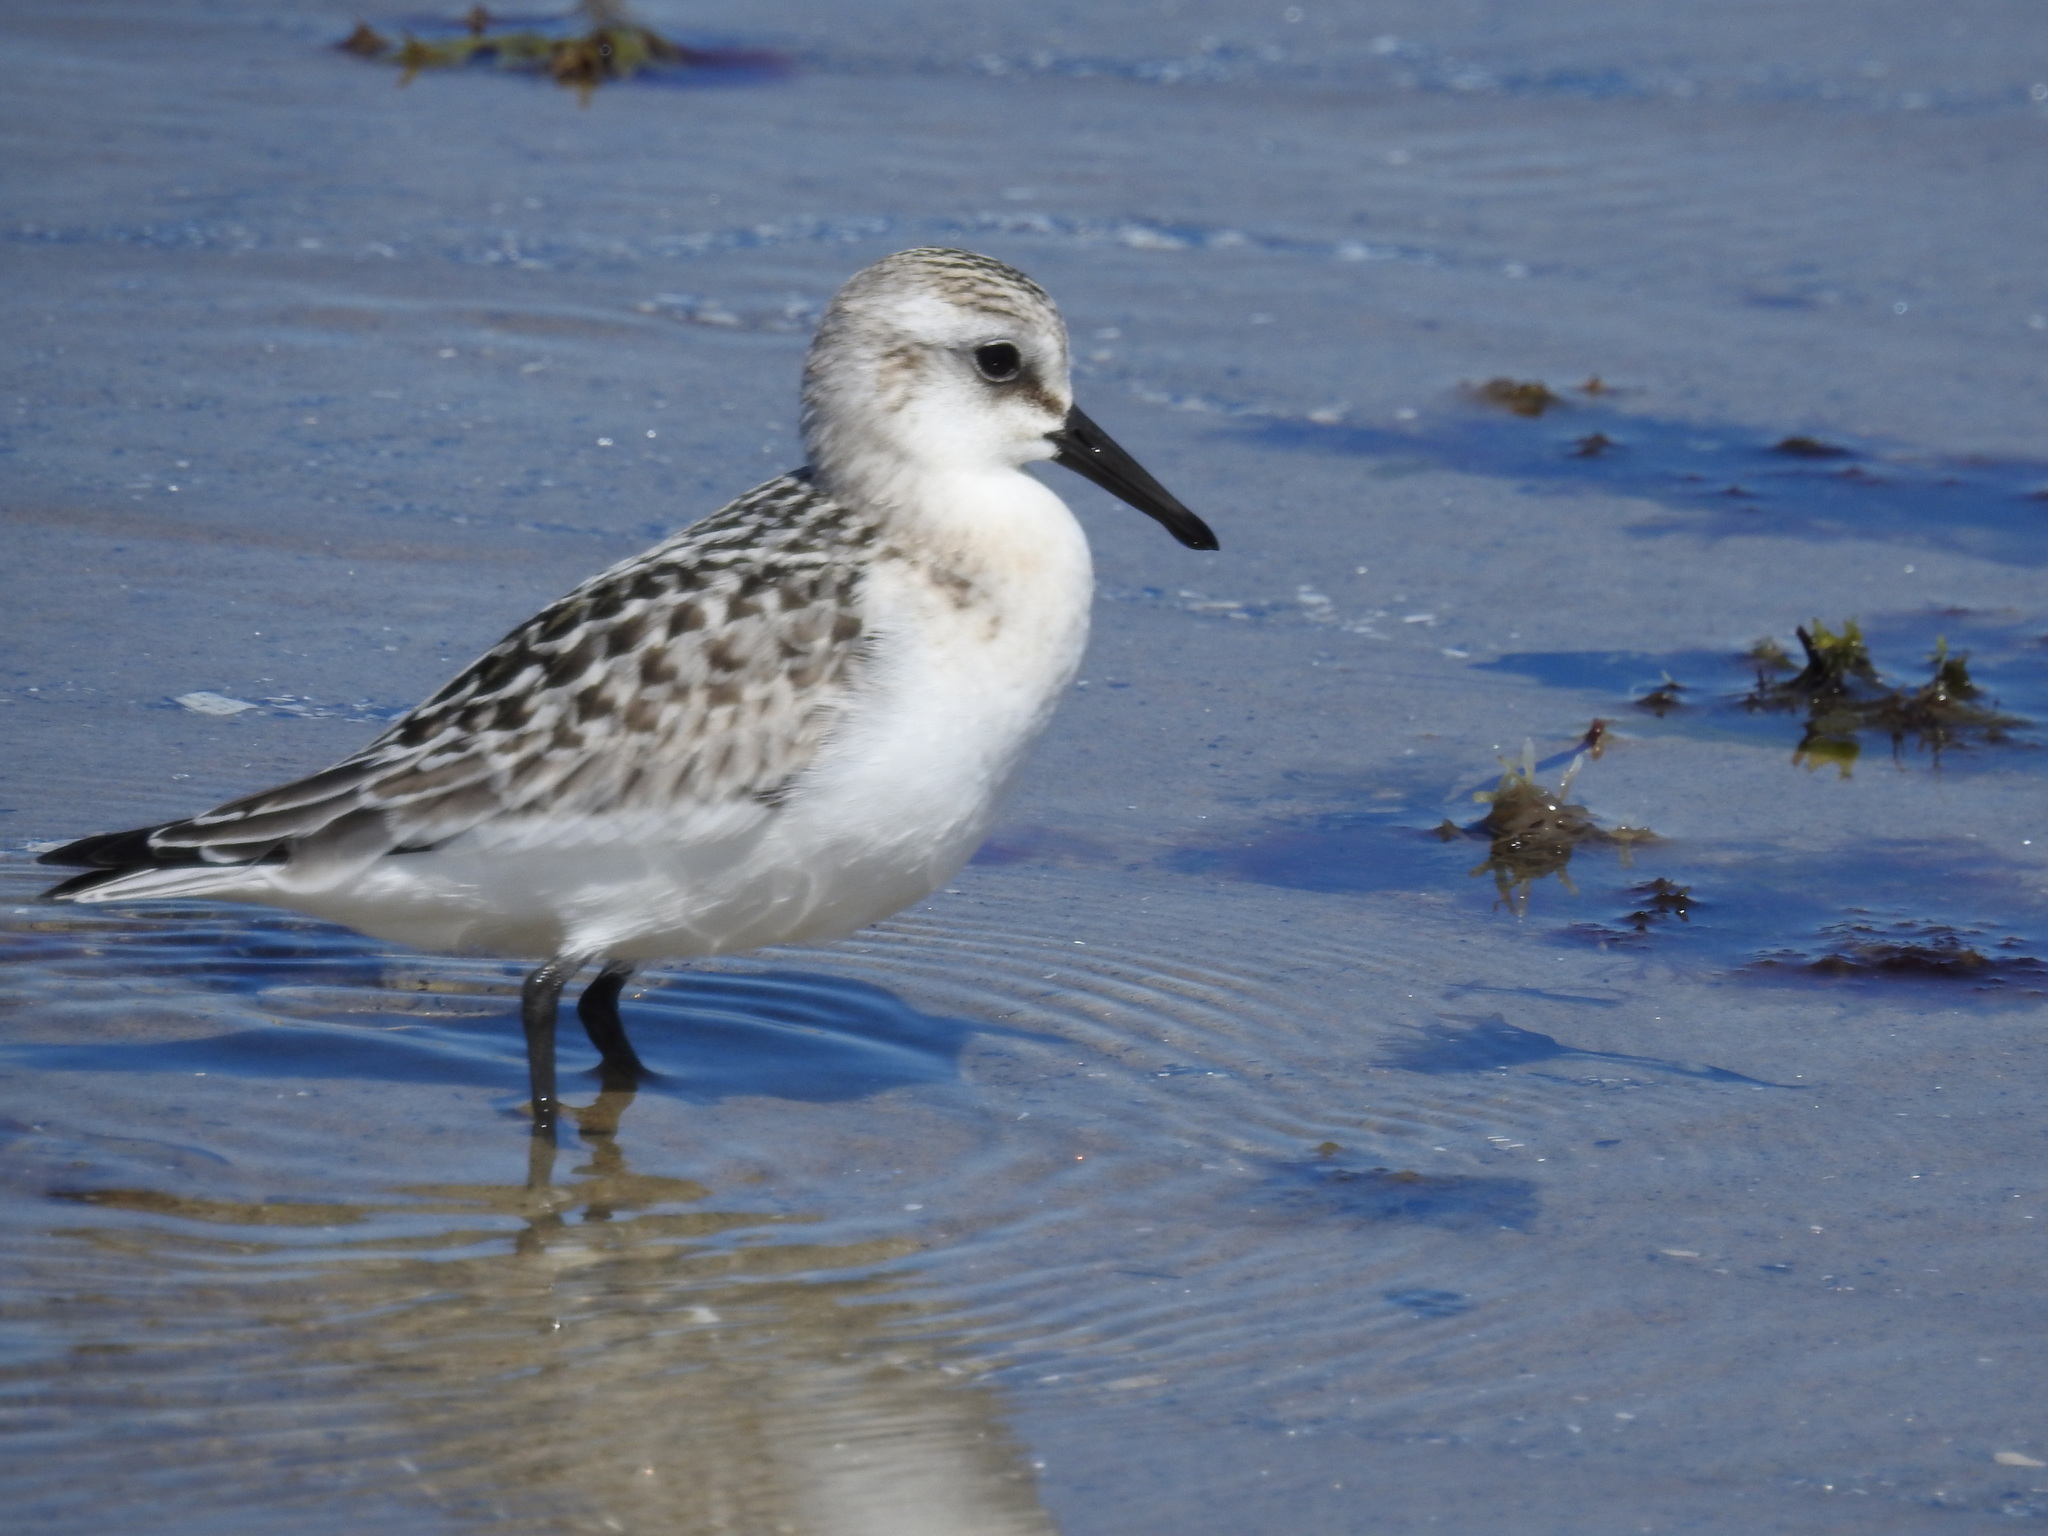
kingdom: Animalia
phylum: Chordata
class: Aves
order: Charadriiformes
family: Scolopacidae
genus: Calidris
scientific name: Calidris alba
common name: Sanderling
